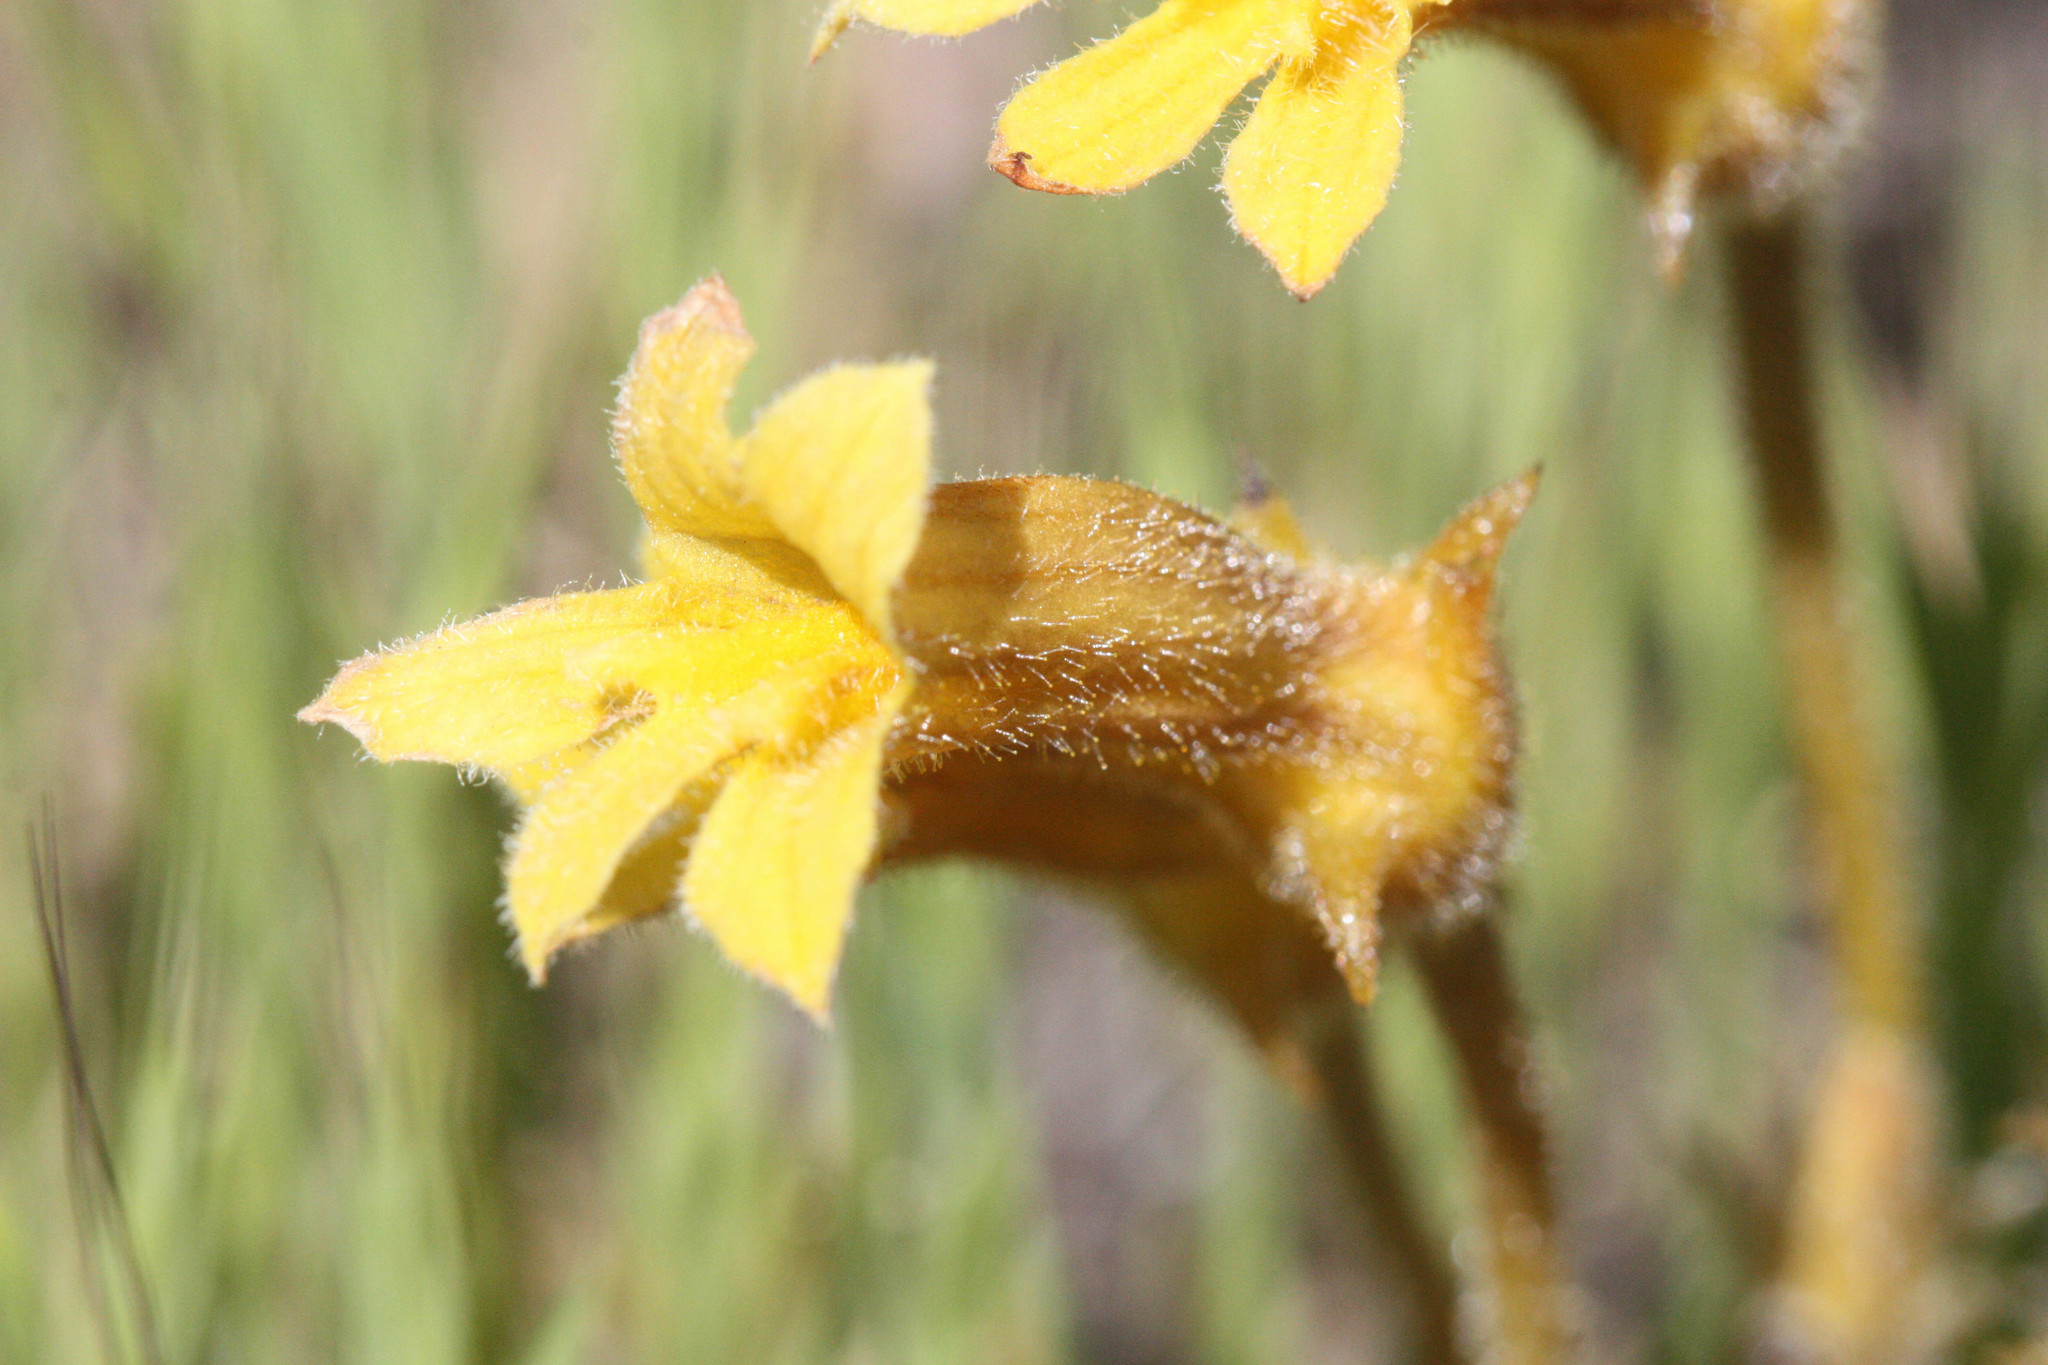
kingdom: Plantae
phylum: Tracheophyta
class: Magnoliopsida
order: Lamiales
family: Orobanchaceae
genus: Aphyllon
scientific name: Aphyllon franciscanum
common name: San francisco broomrape
